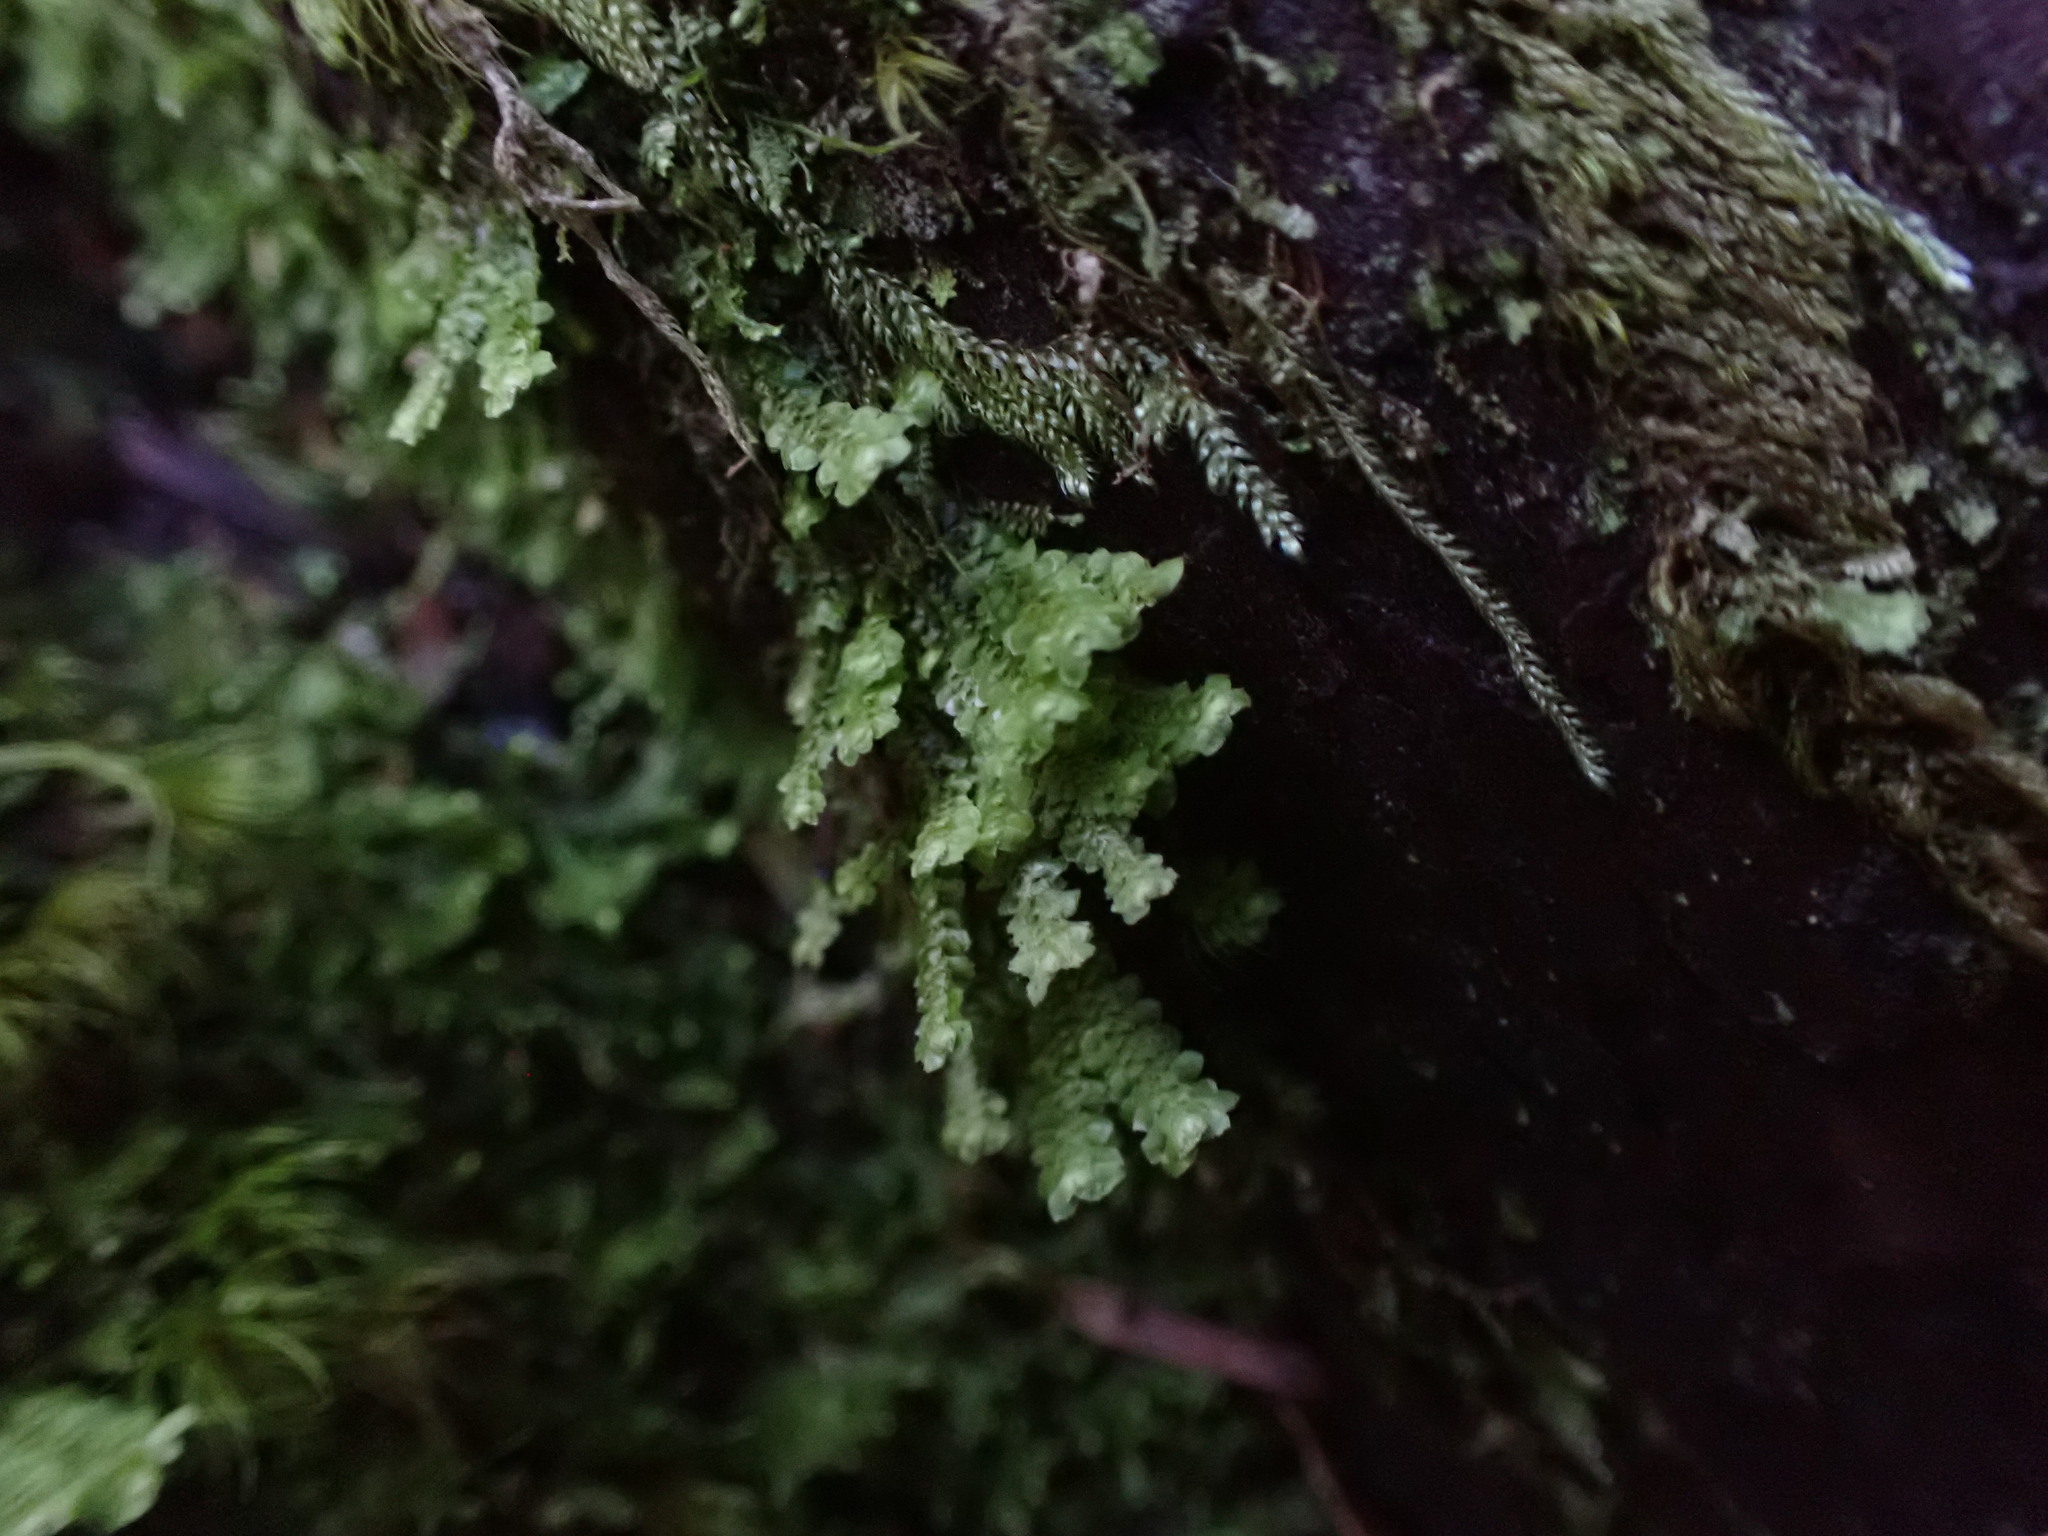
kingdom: Plantae
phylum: Marchantiophyta
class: Jungermanniopsida
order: Jungermanniales
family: Scapaniaceae
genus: Scapania
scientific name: Scapania bolanderi
